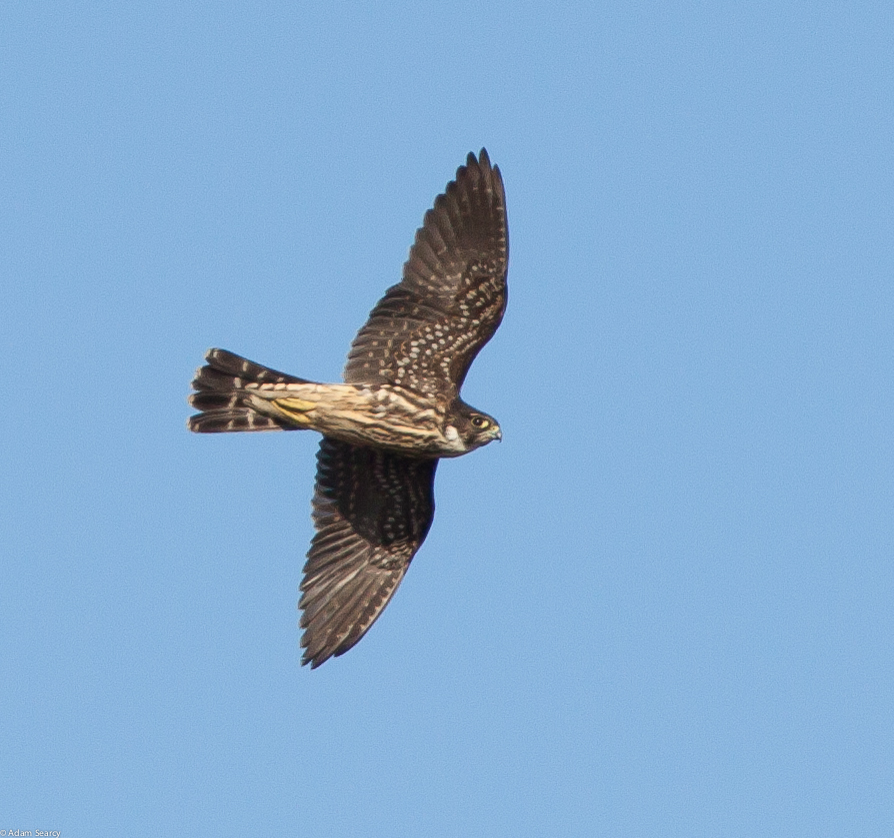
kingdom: Animalia
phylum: Chordata
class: Aves
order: Falconiformes
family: Falconidae
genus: Falco
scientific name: Falco columbarius
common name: Merlin
